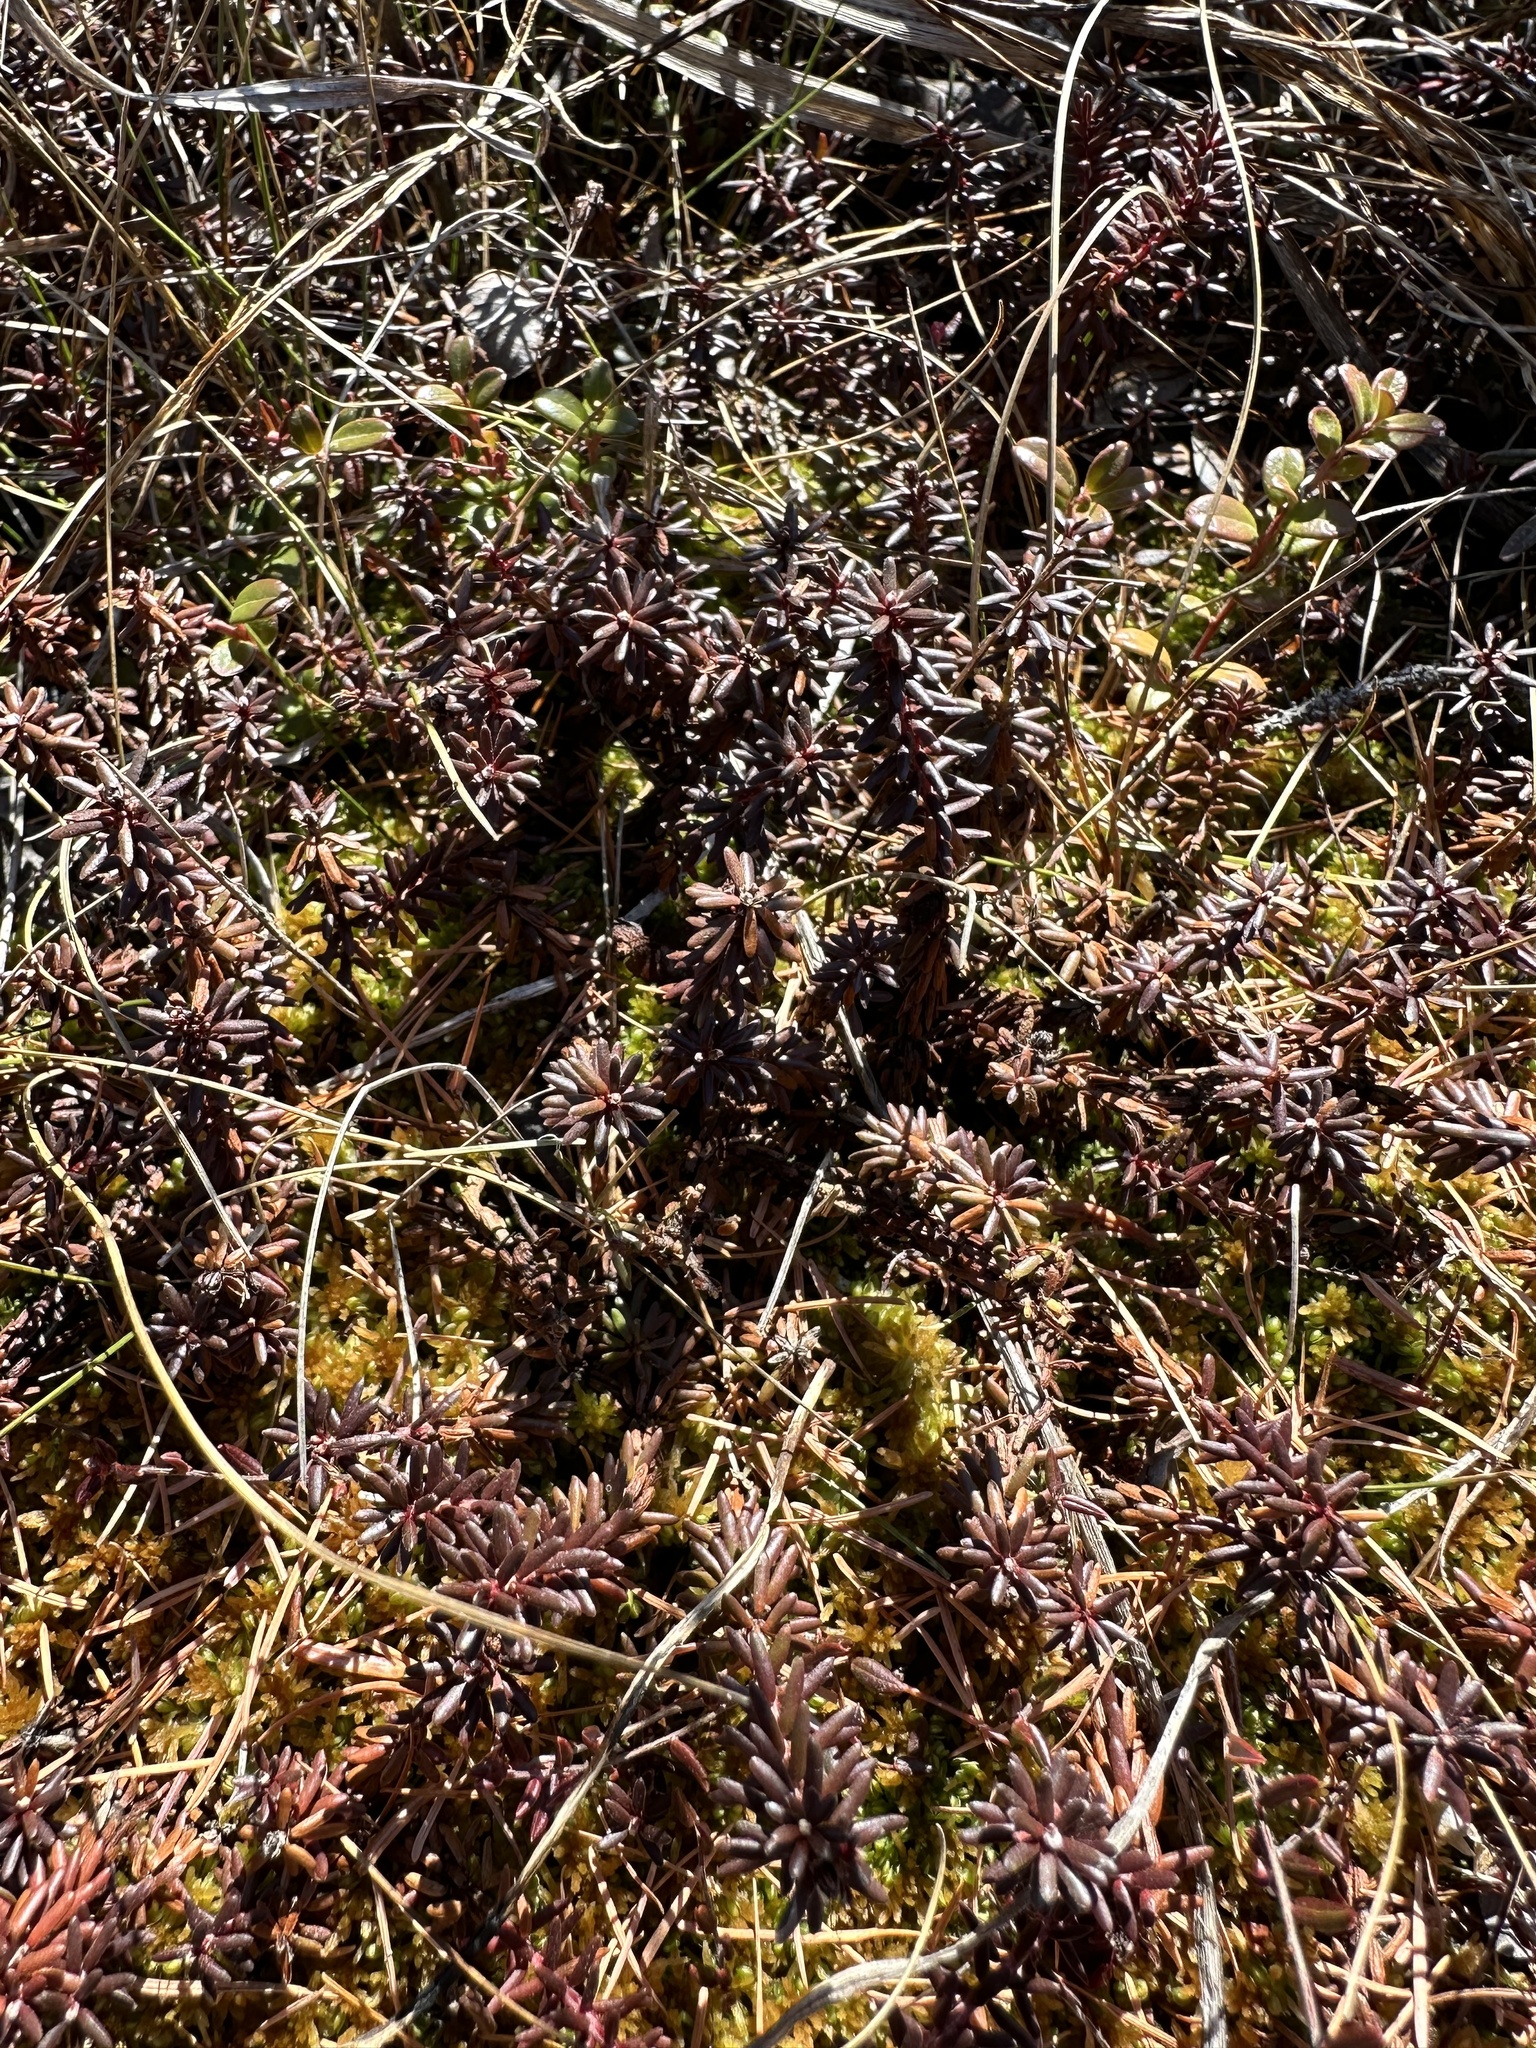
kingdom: Plantae
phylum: Tracheophyta
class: Magnoliopsida
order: Ericales
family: Ericaceae
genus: Empetrum
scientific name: Empetrum nigrum
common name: Black crowberry
